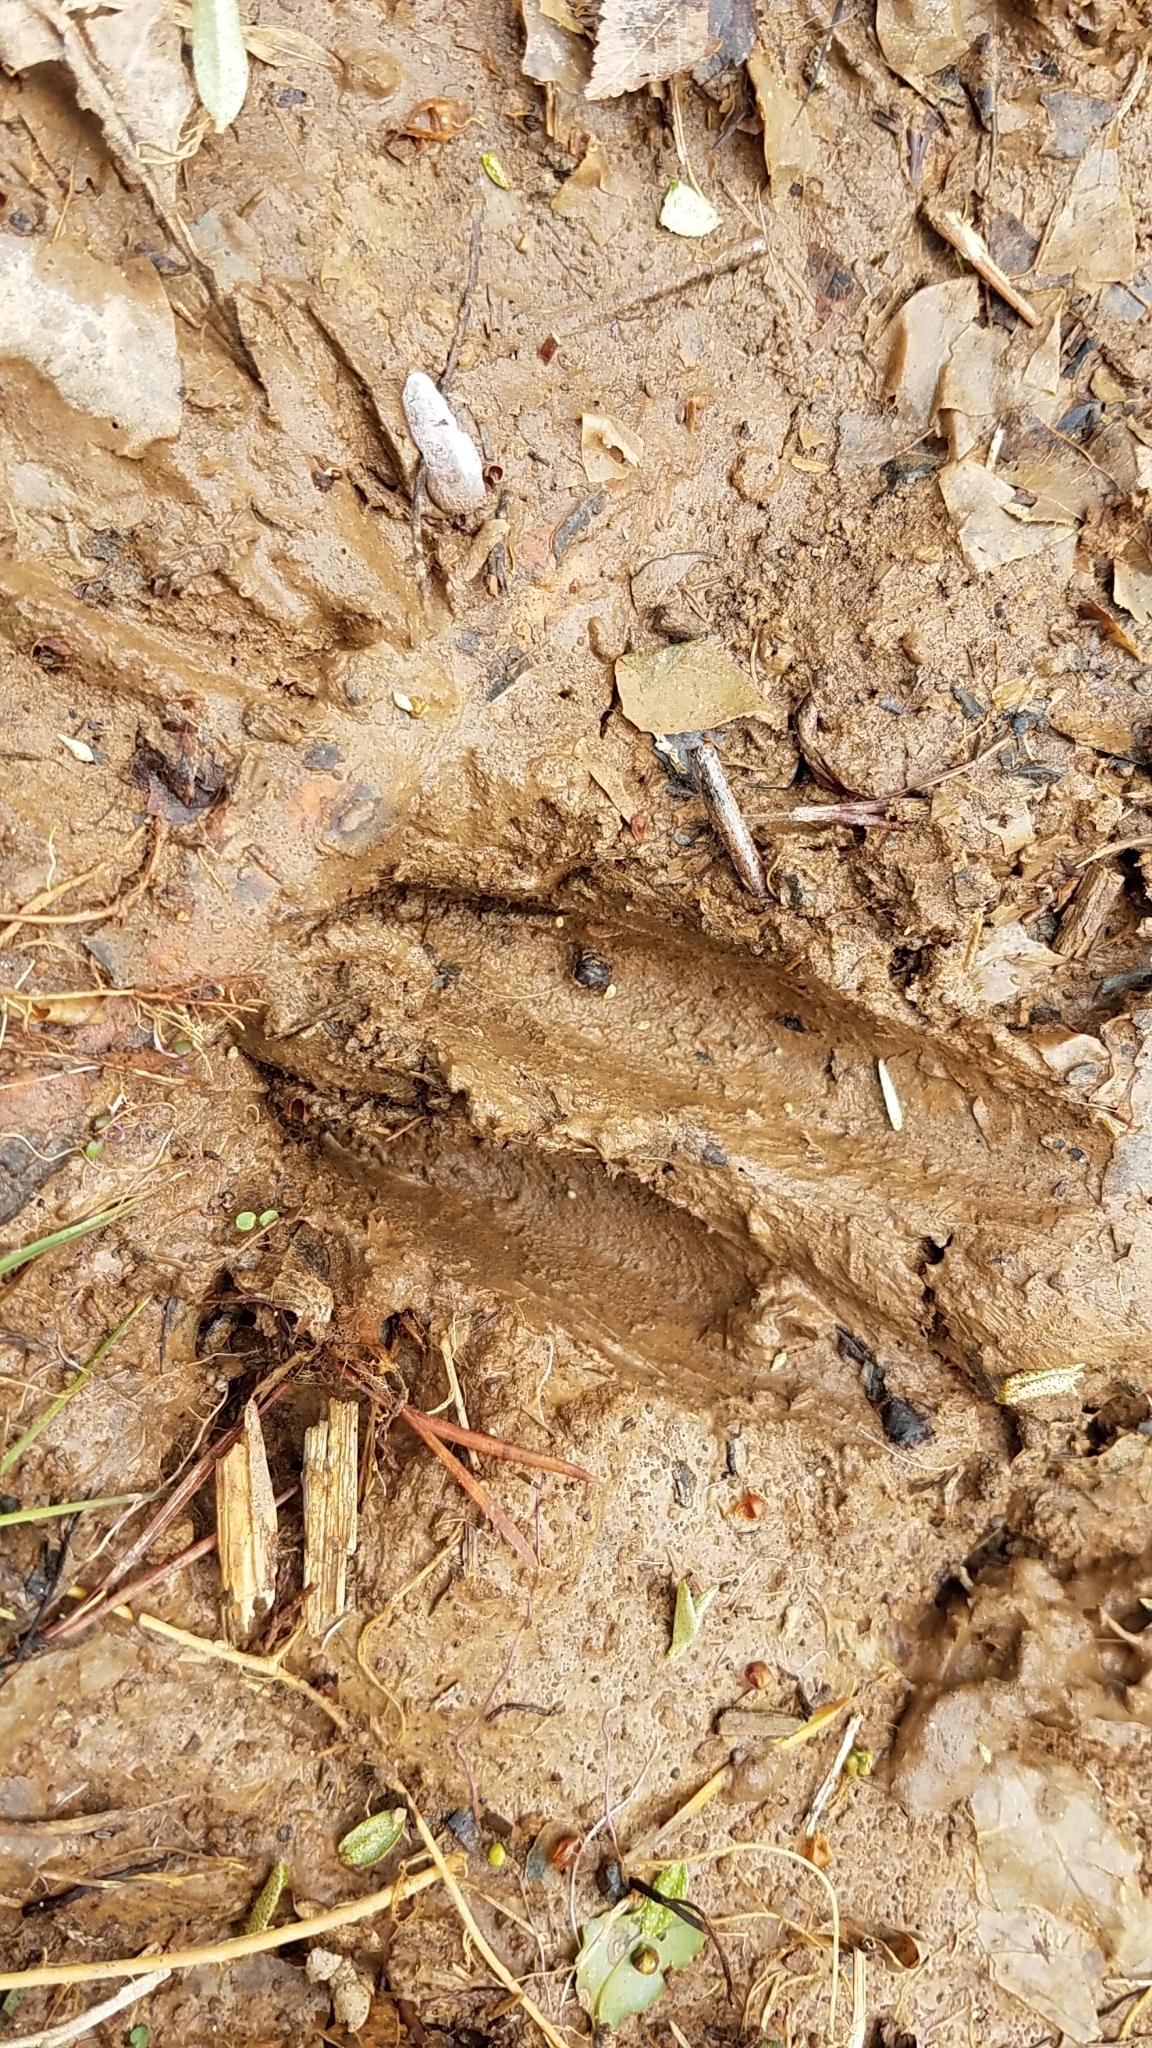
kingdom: Animalia
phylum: Chordata
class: Mammalia
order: Artiodactyla
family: Cervidae
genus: Odocoileus
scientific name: Odocoileus virginianus
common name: White-tailed deer
